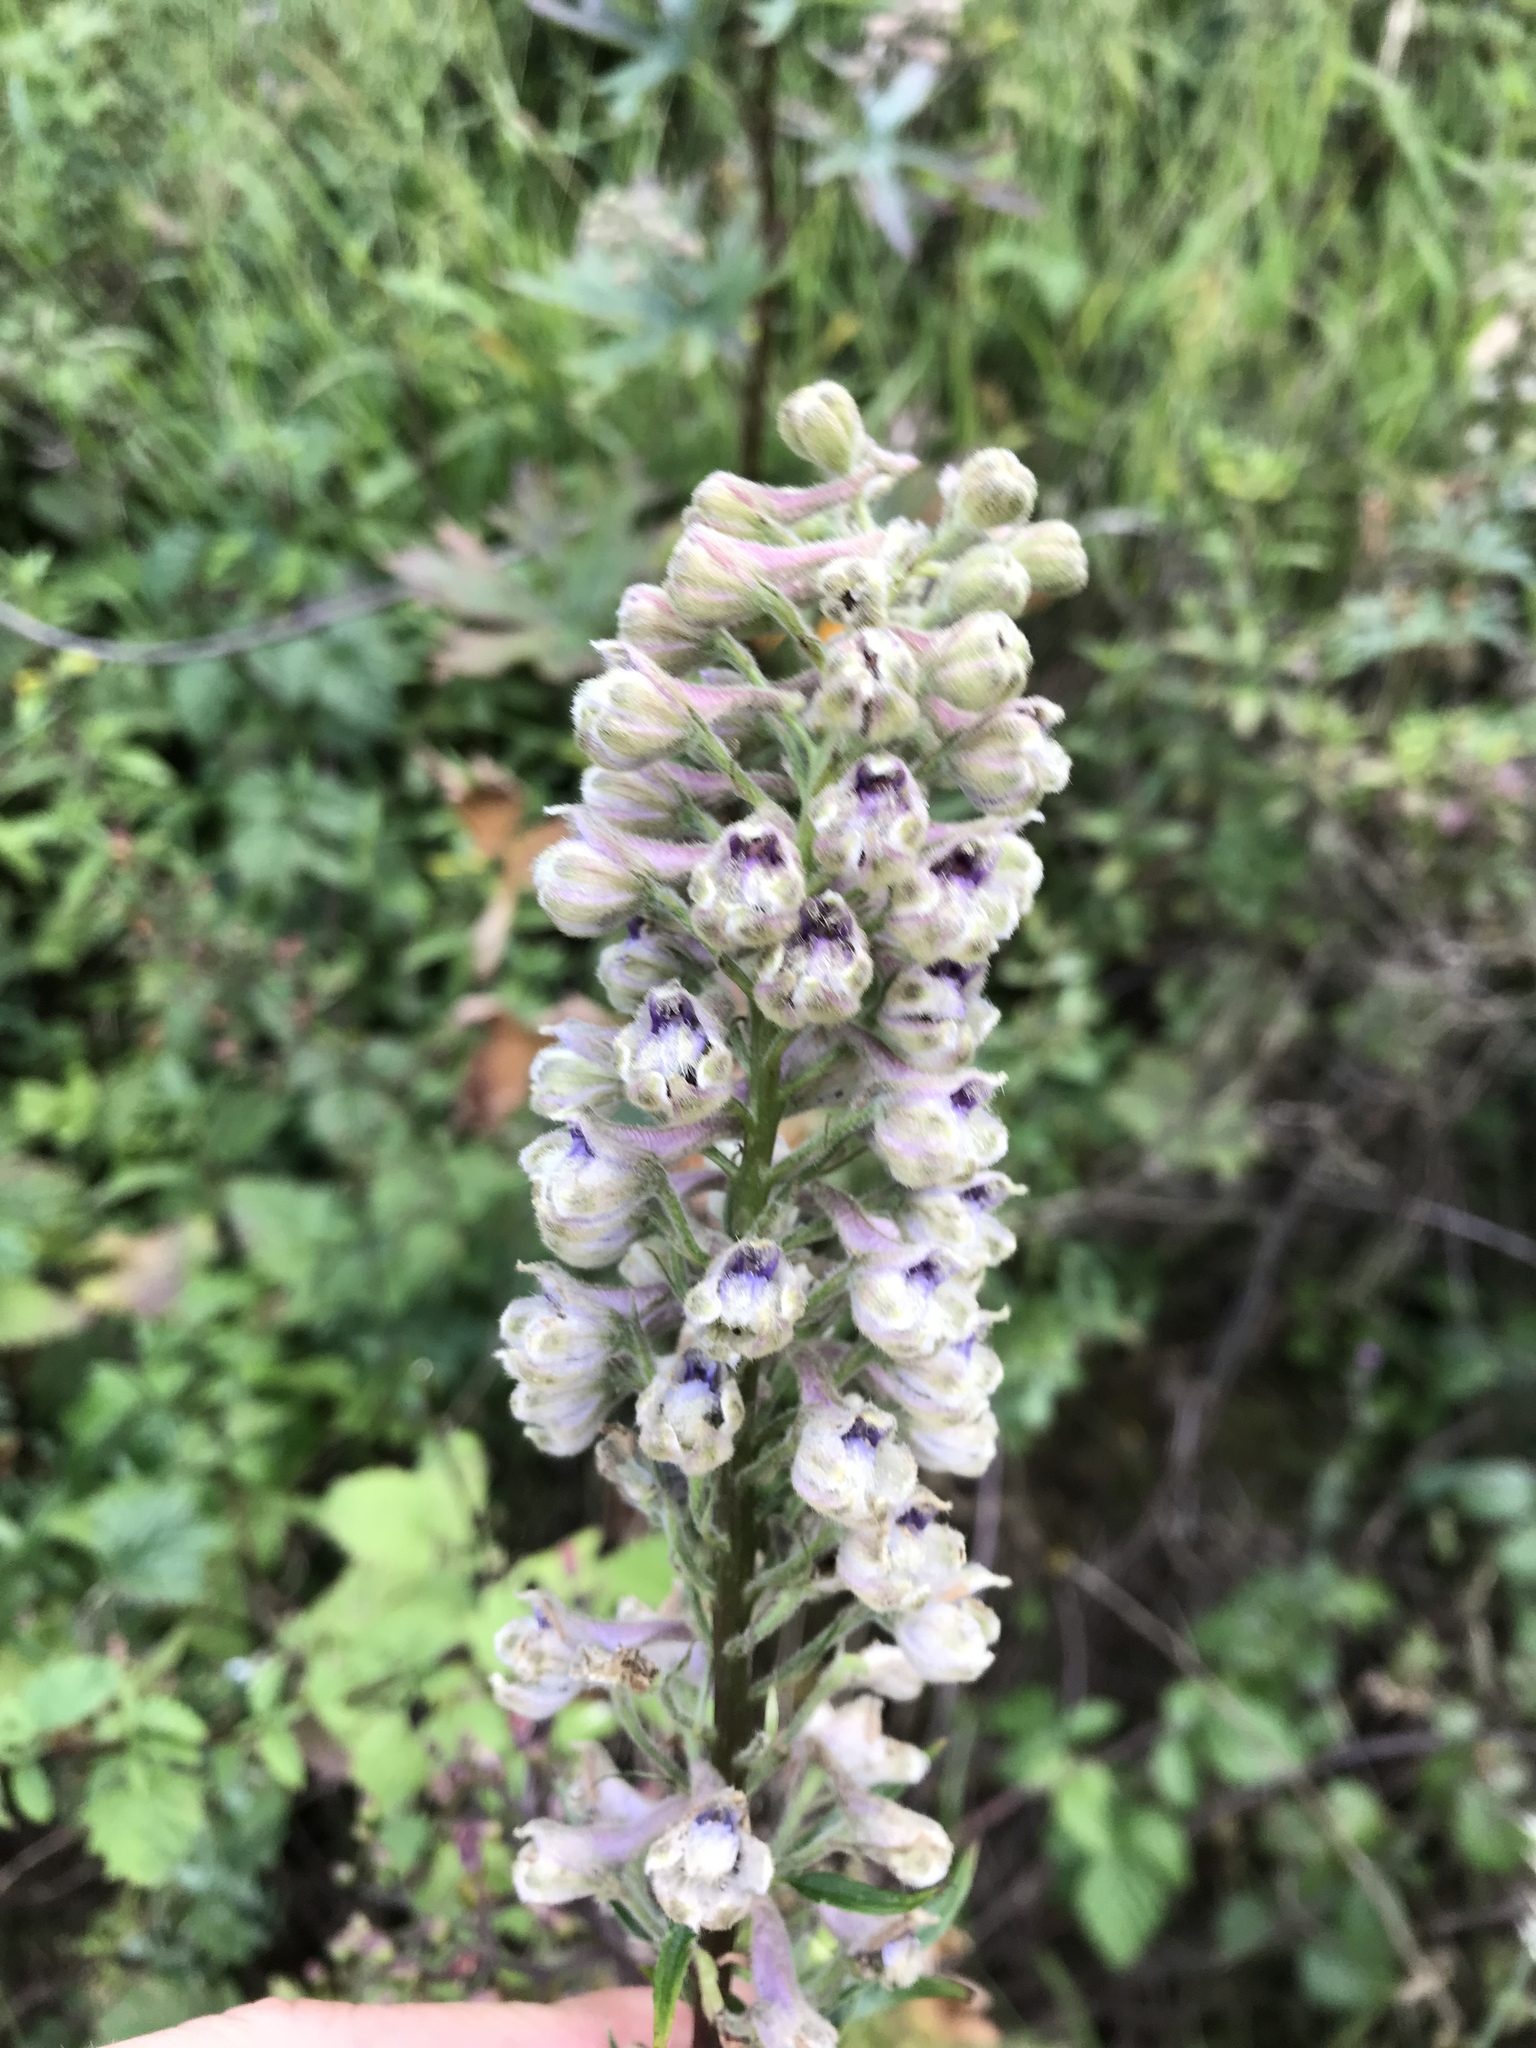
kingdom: Plantae
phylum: Tracheophyta
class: Magnoliopsida
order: Ranunculales
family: Ranunculaceae
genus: Delphinium
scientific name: Delphinium californicum
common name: California larkspur
